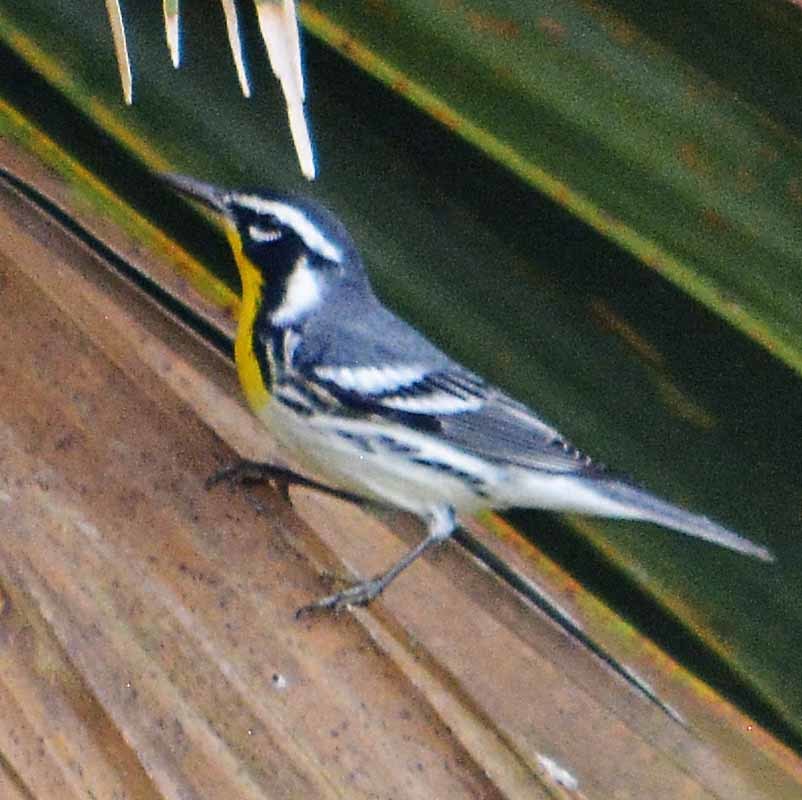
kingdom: Animalia
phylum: Chordata
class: Aves
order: Passeriformes
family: Parulidae
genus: Setophaga
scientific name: Setophaga dominica
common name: Yellow-throated warbler
